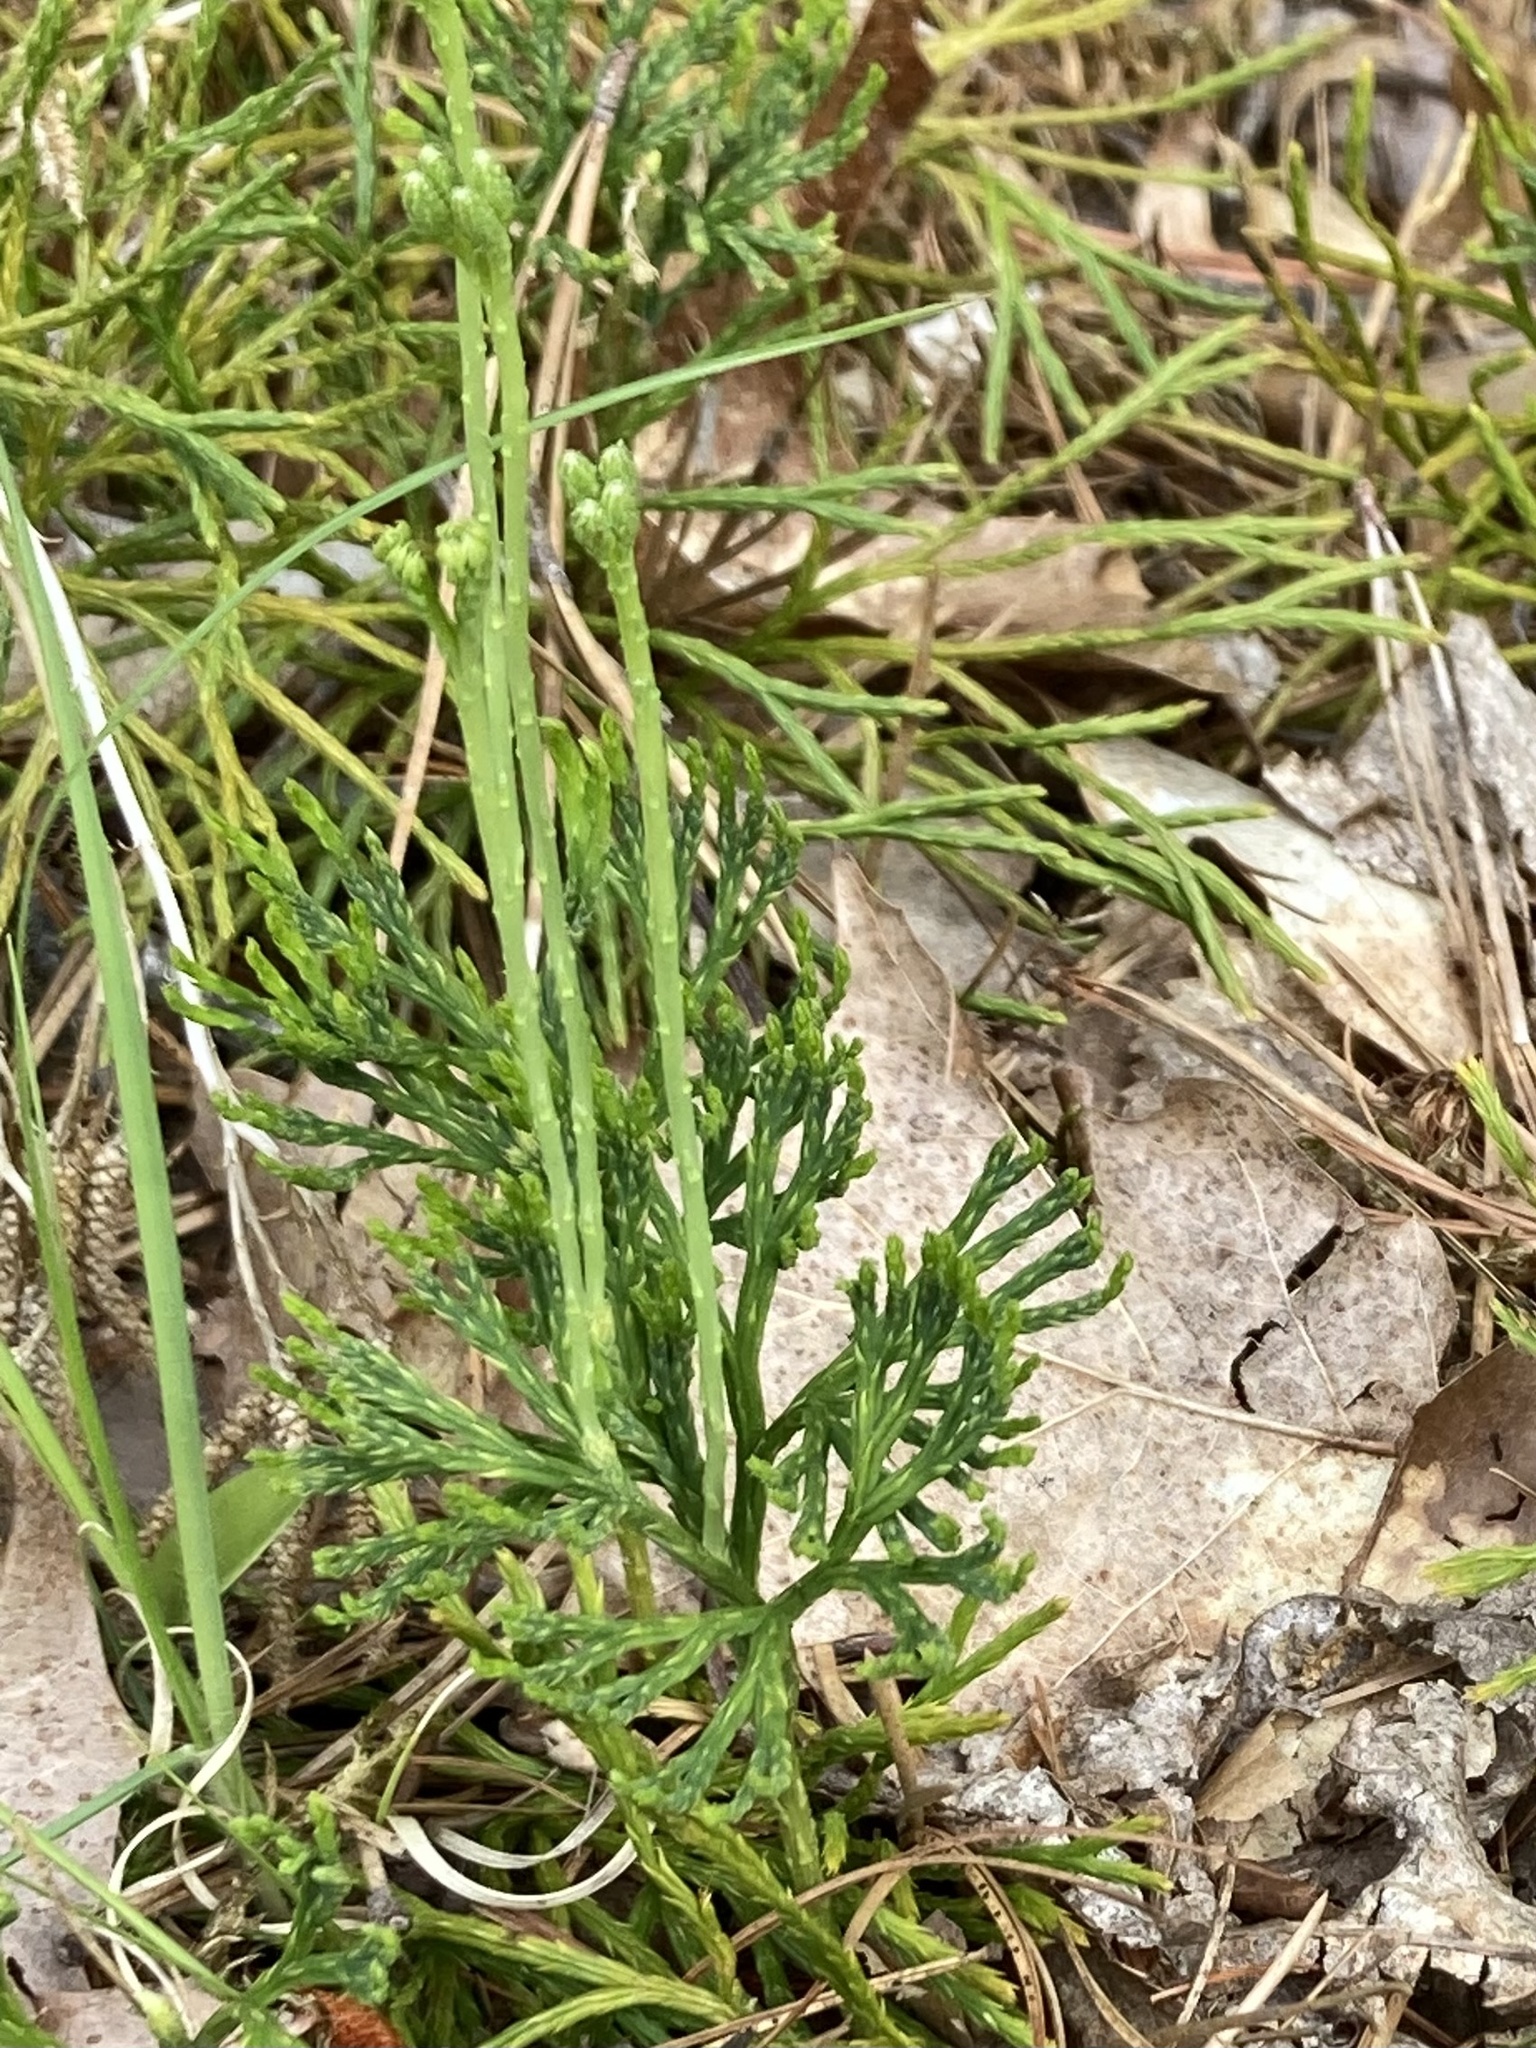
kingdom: Plantae
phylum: Tracheophyta
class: Lycopodiopsida
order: Lycopodiales
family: Lycopodiaceae
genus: Diphasiastrum
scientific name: Diphasiastrum tristachyum
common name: Blue ground-cedar
